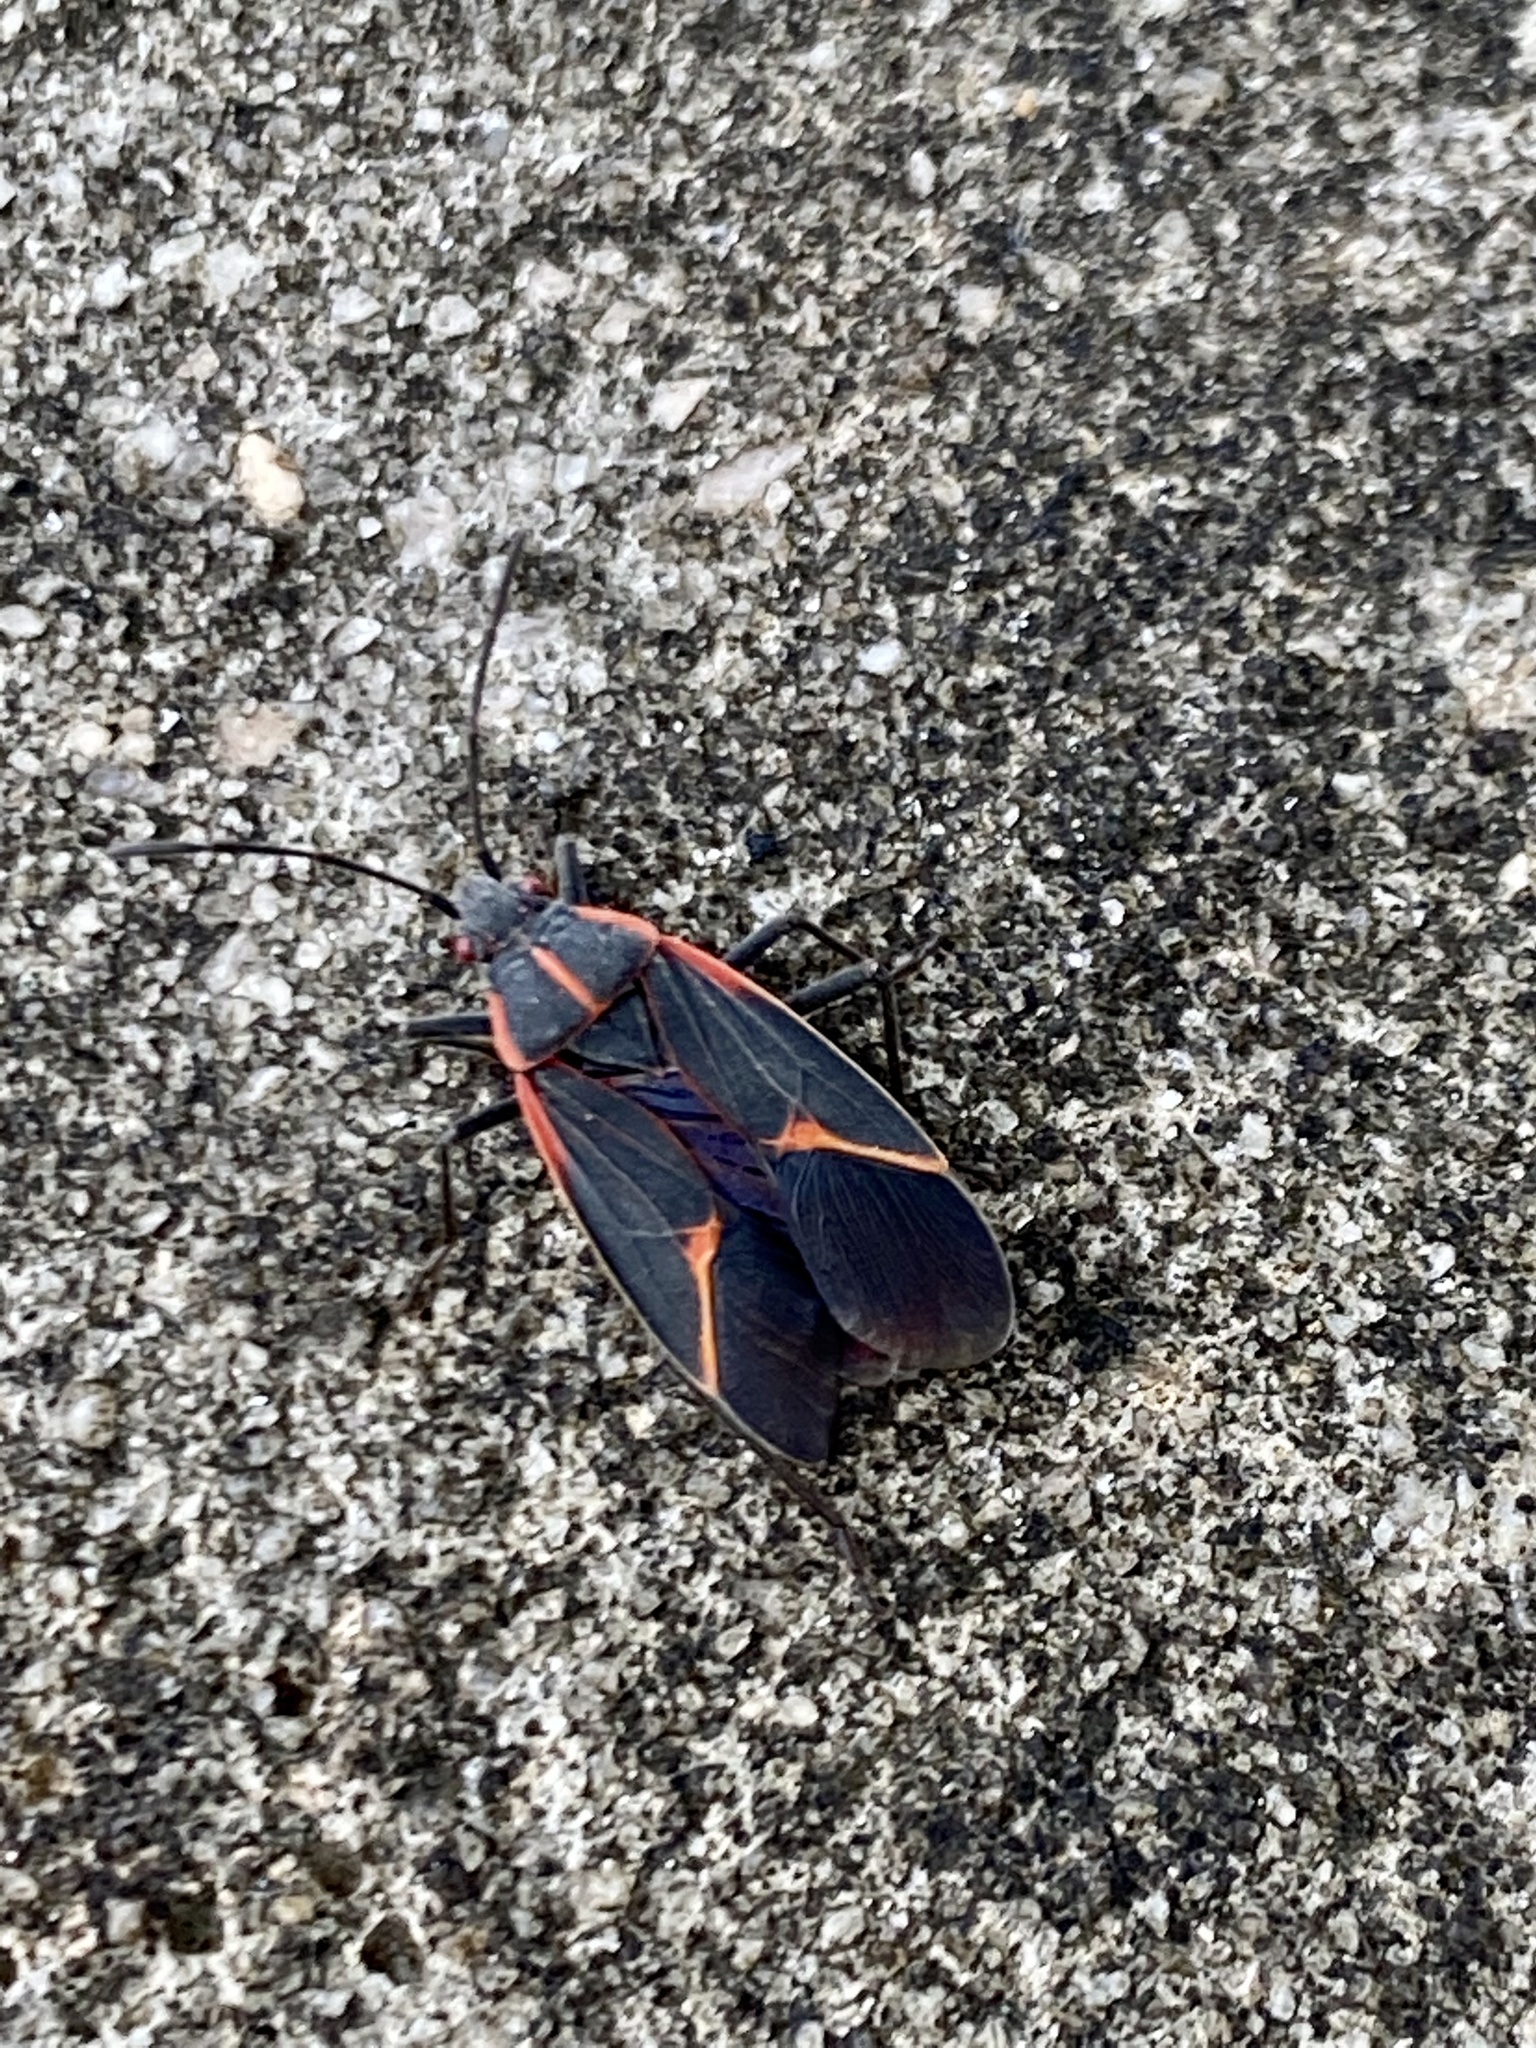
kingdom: Animalia
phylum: Arthropoda
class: Insecta
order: Hemiptera
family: Rhopalidae
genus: Boisea
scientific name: Boisea trivittata
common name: Boxelder bug
